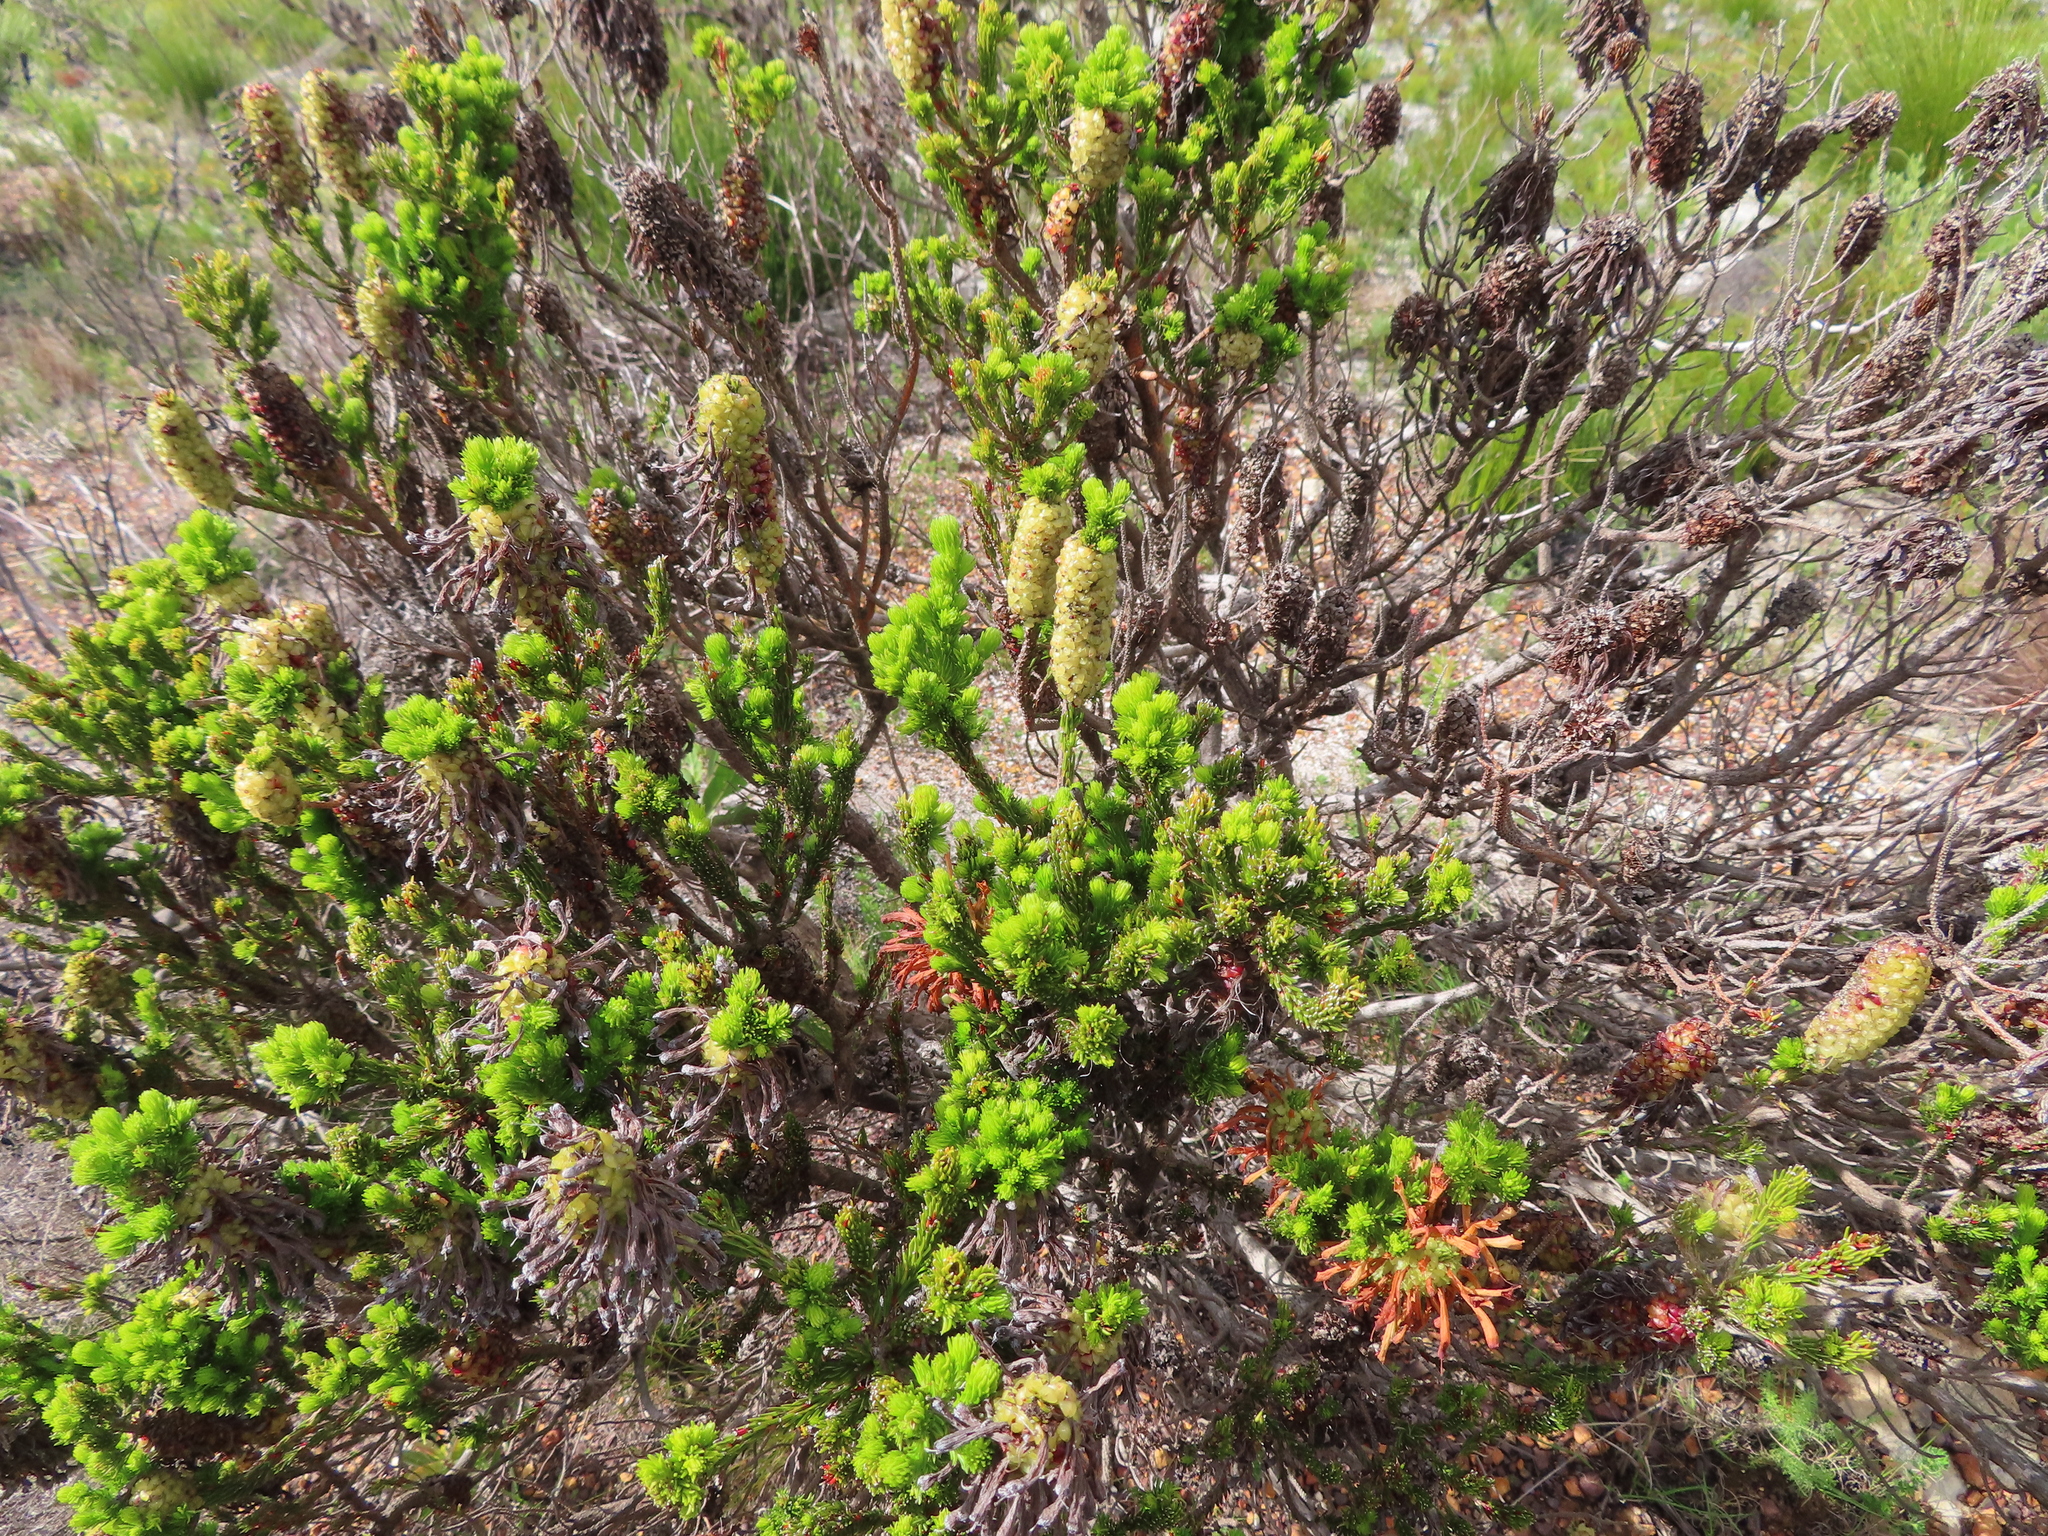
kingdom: Plantae
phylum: Tracheophyta
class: Magnoliopsida
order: Ericales
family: Ericaceae
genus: Erica
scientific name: Erica sessiliflora
